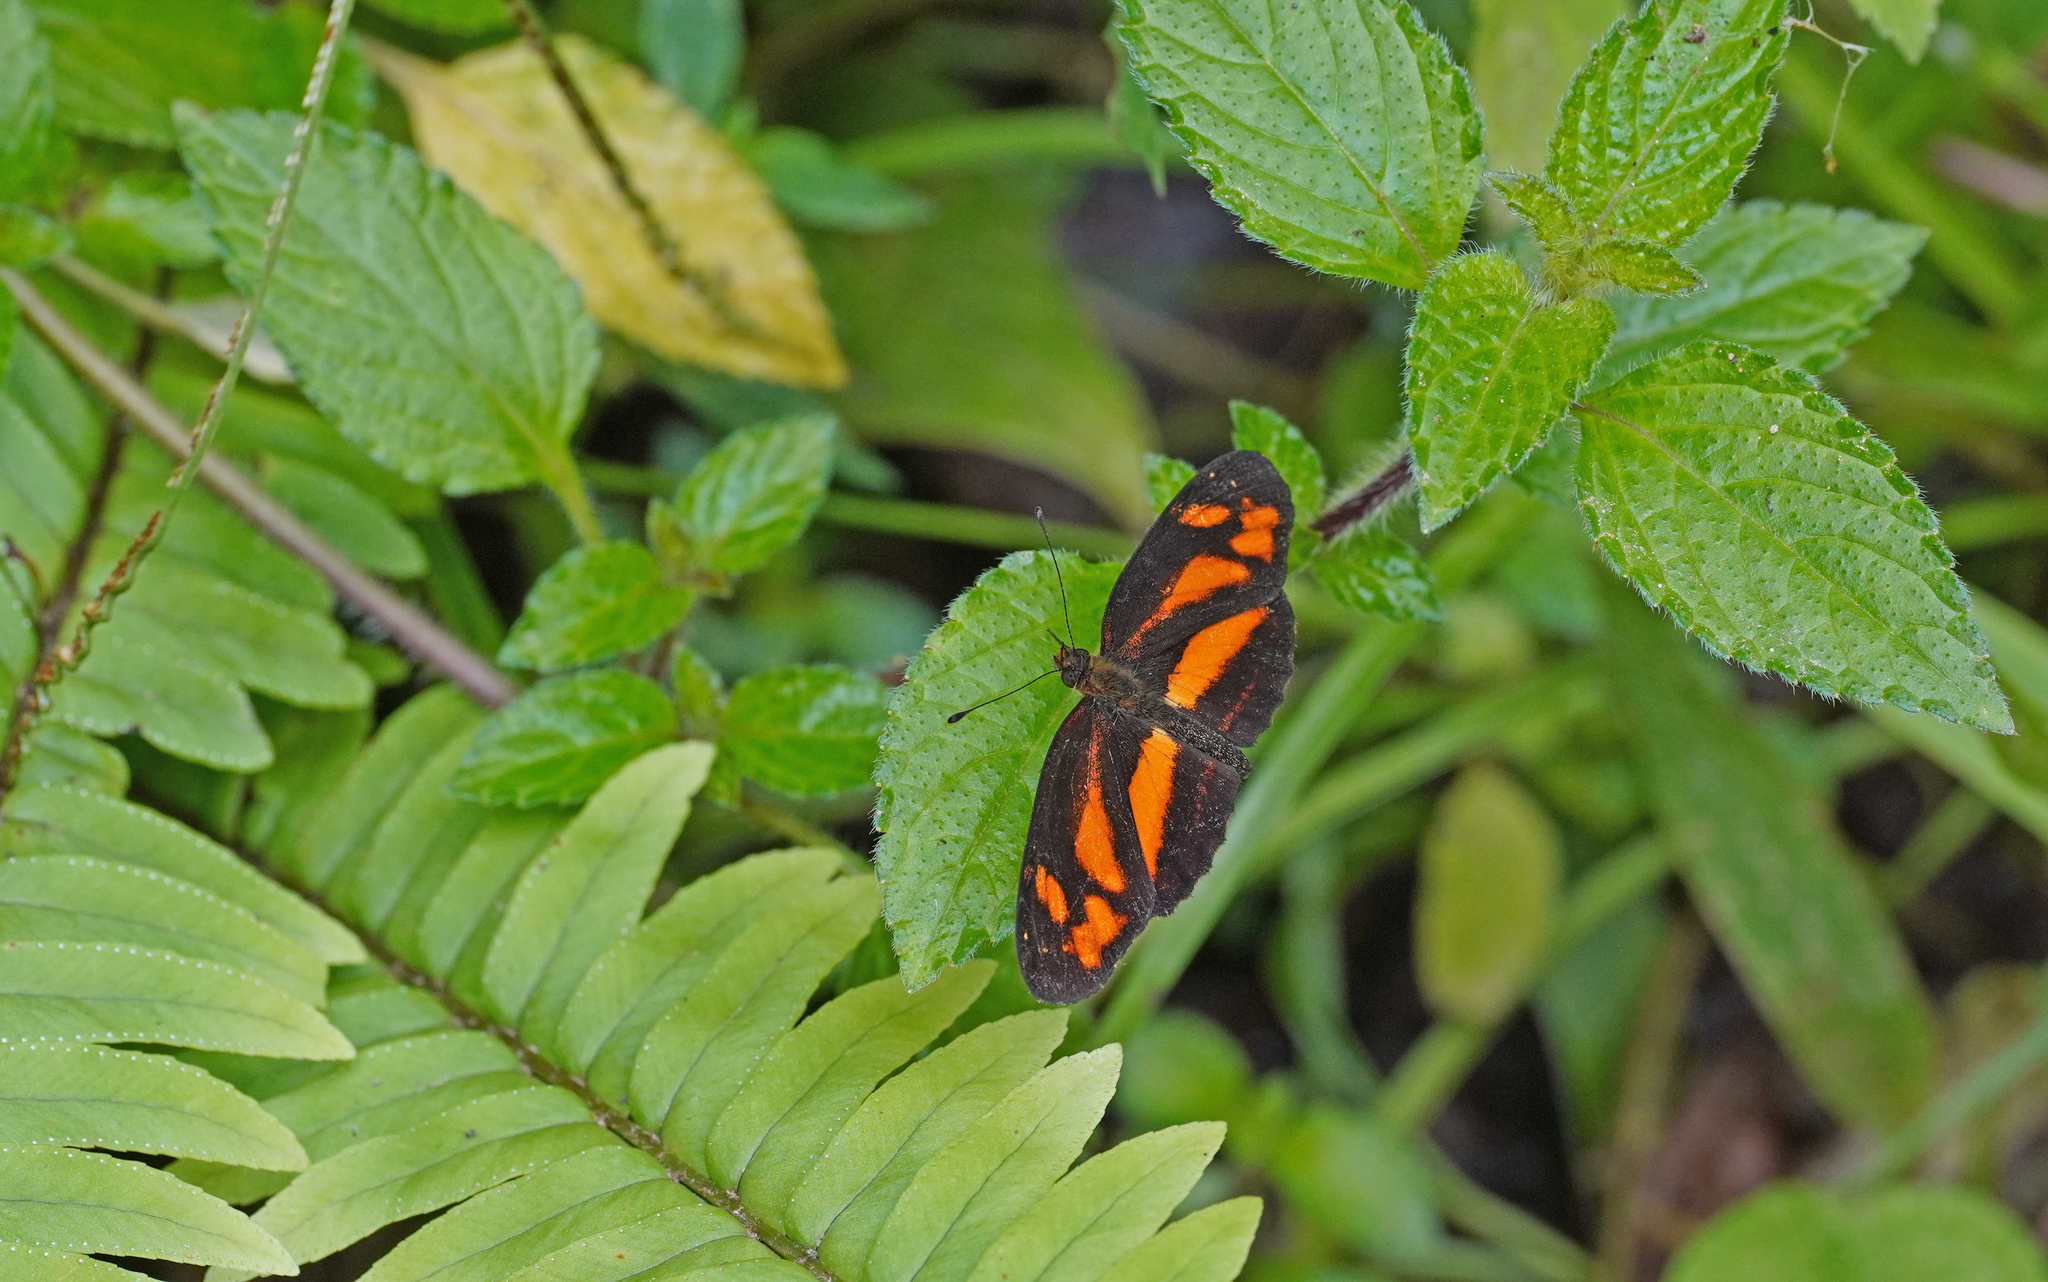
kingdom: Animalia
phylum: Arthropoda
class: Insecta
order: Lepidoptera
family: Nymphalidae
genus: Castilia
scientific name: Castilia eranites
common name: Smudged crescent
